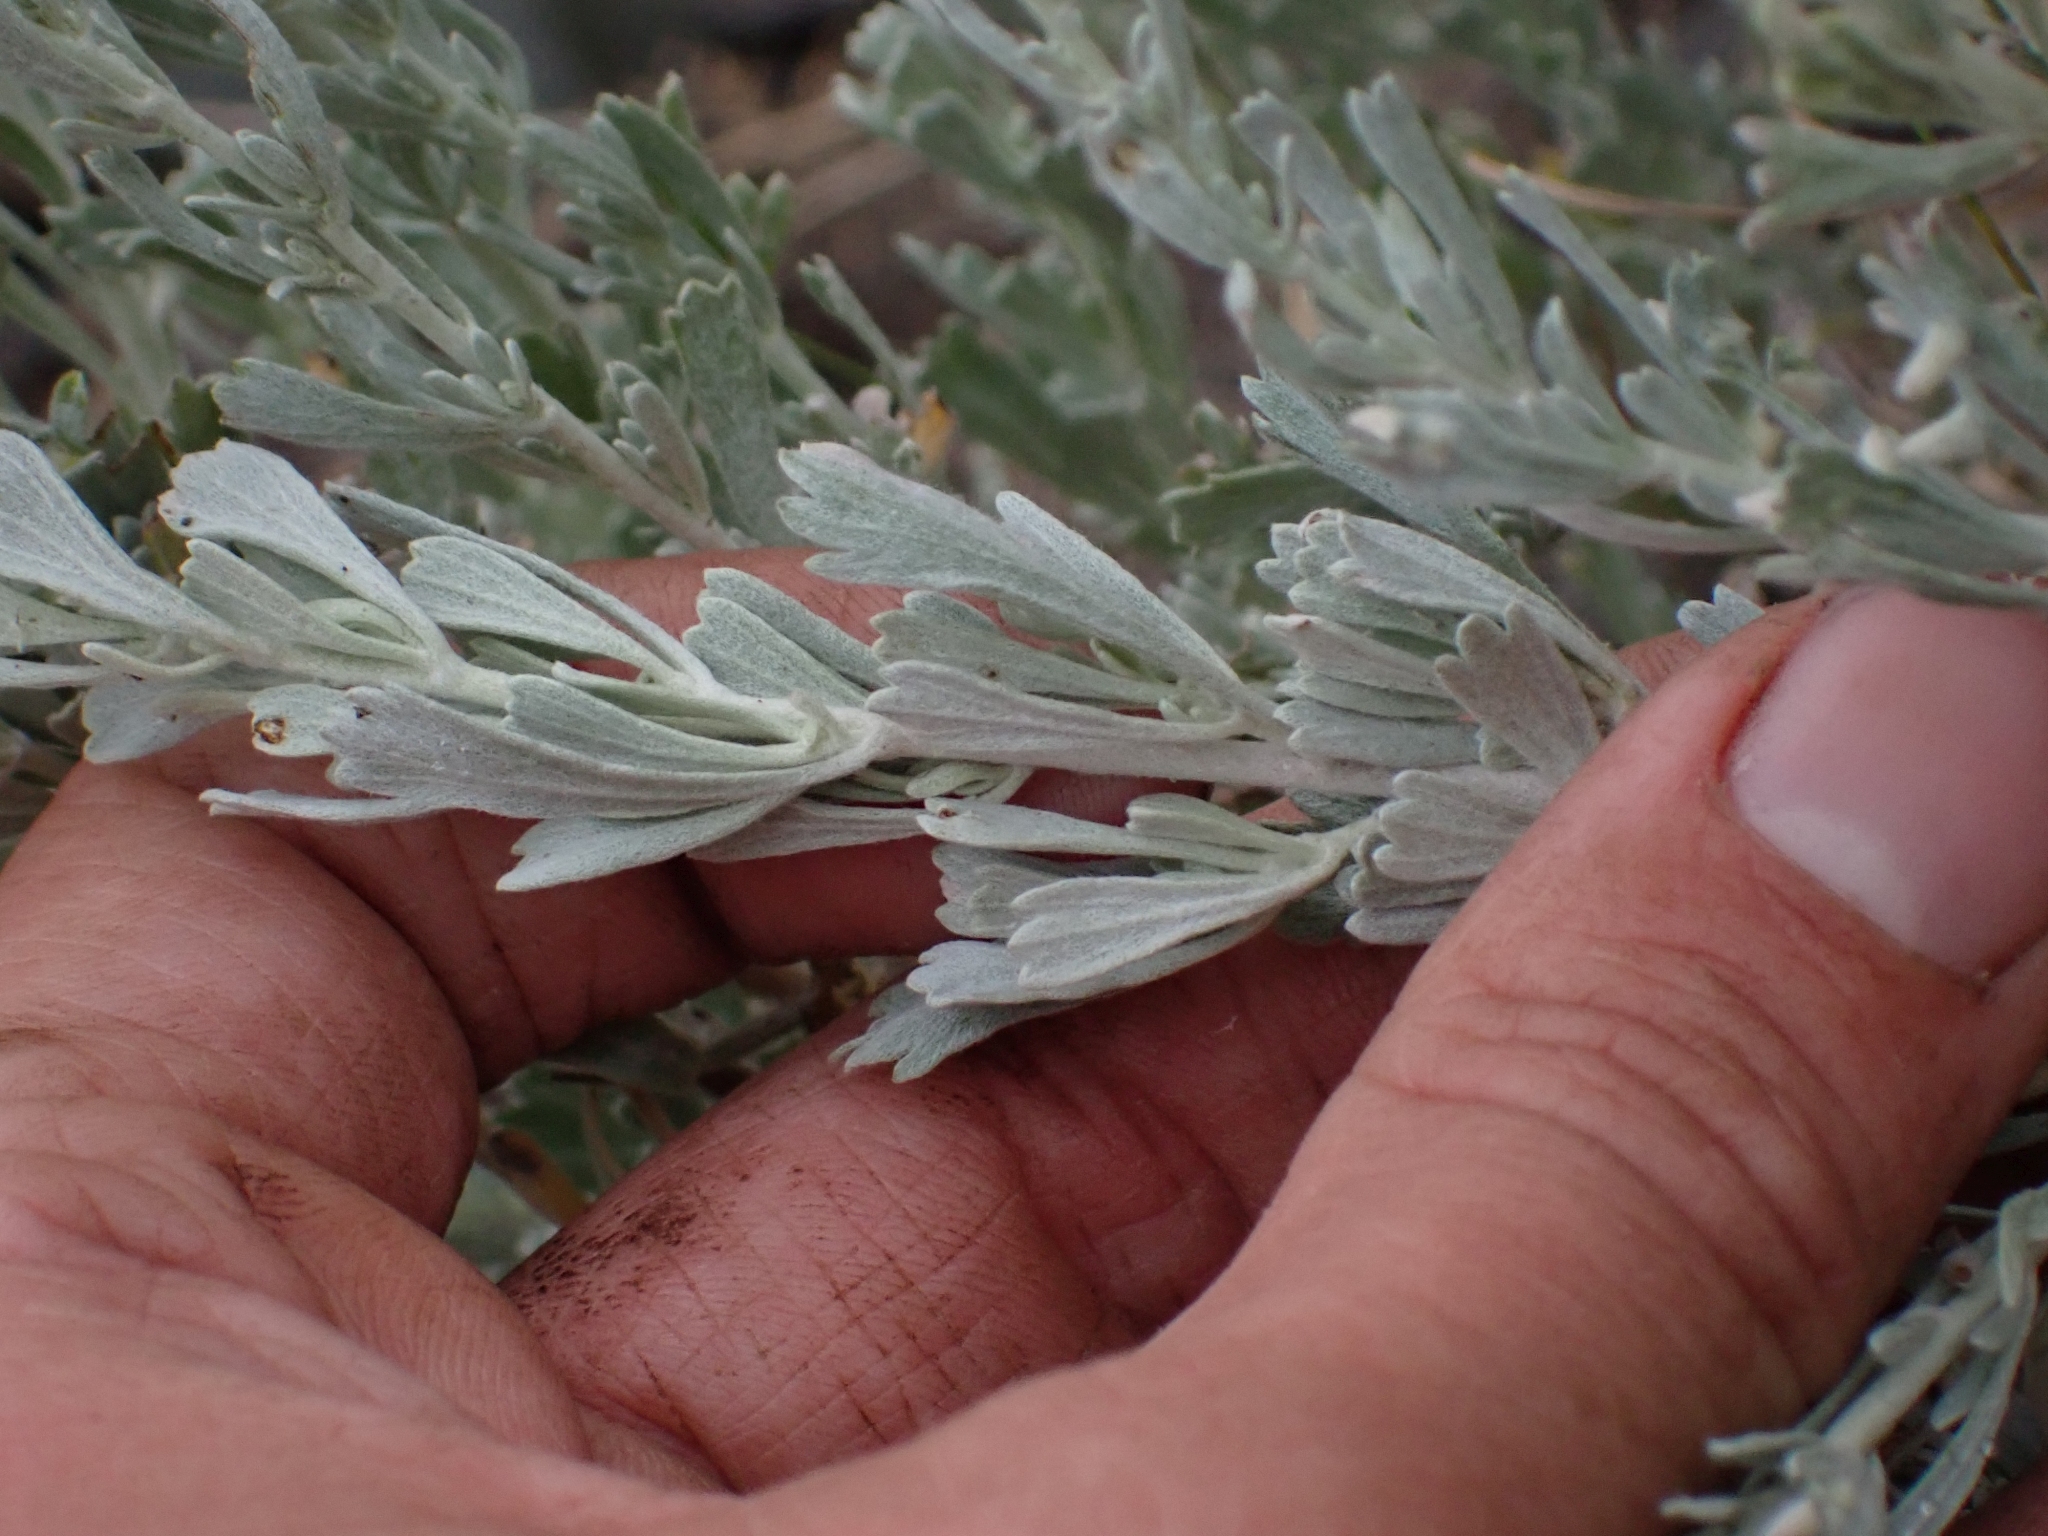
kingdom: Plantae
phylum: Tracheophyta
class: Magnoliopsida
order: Asterales
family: Asteraceae
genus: Artemisia
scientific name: Artemisia tridentata
